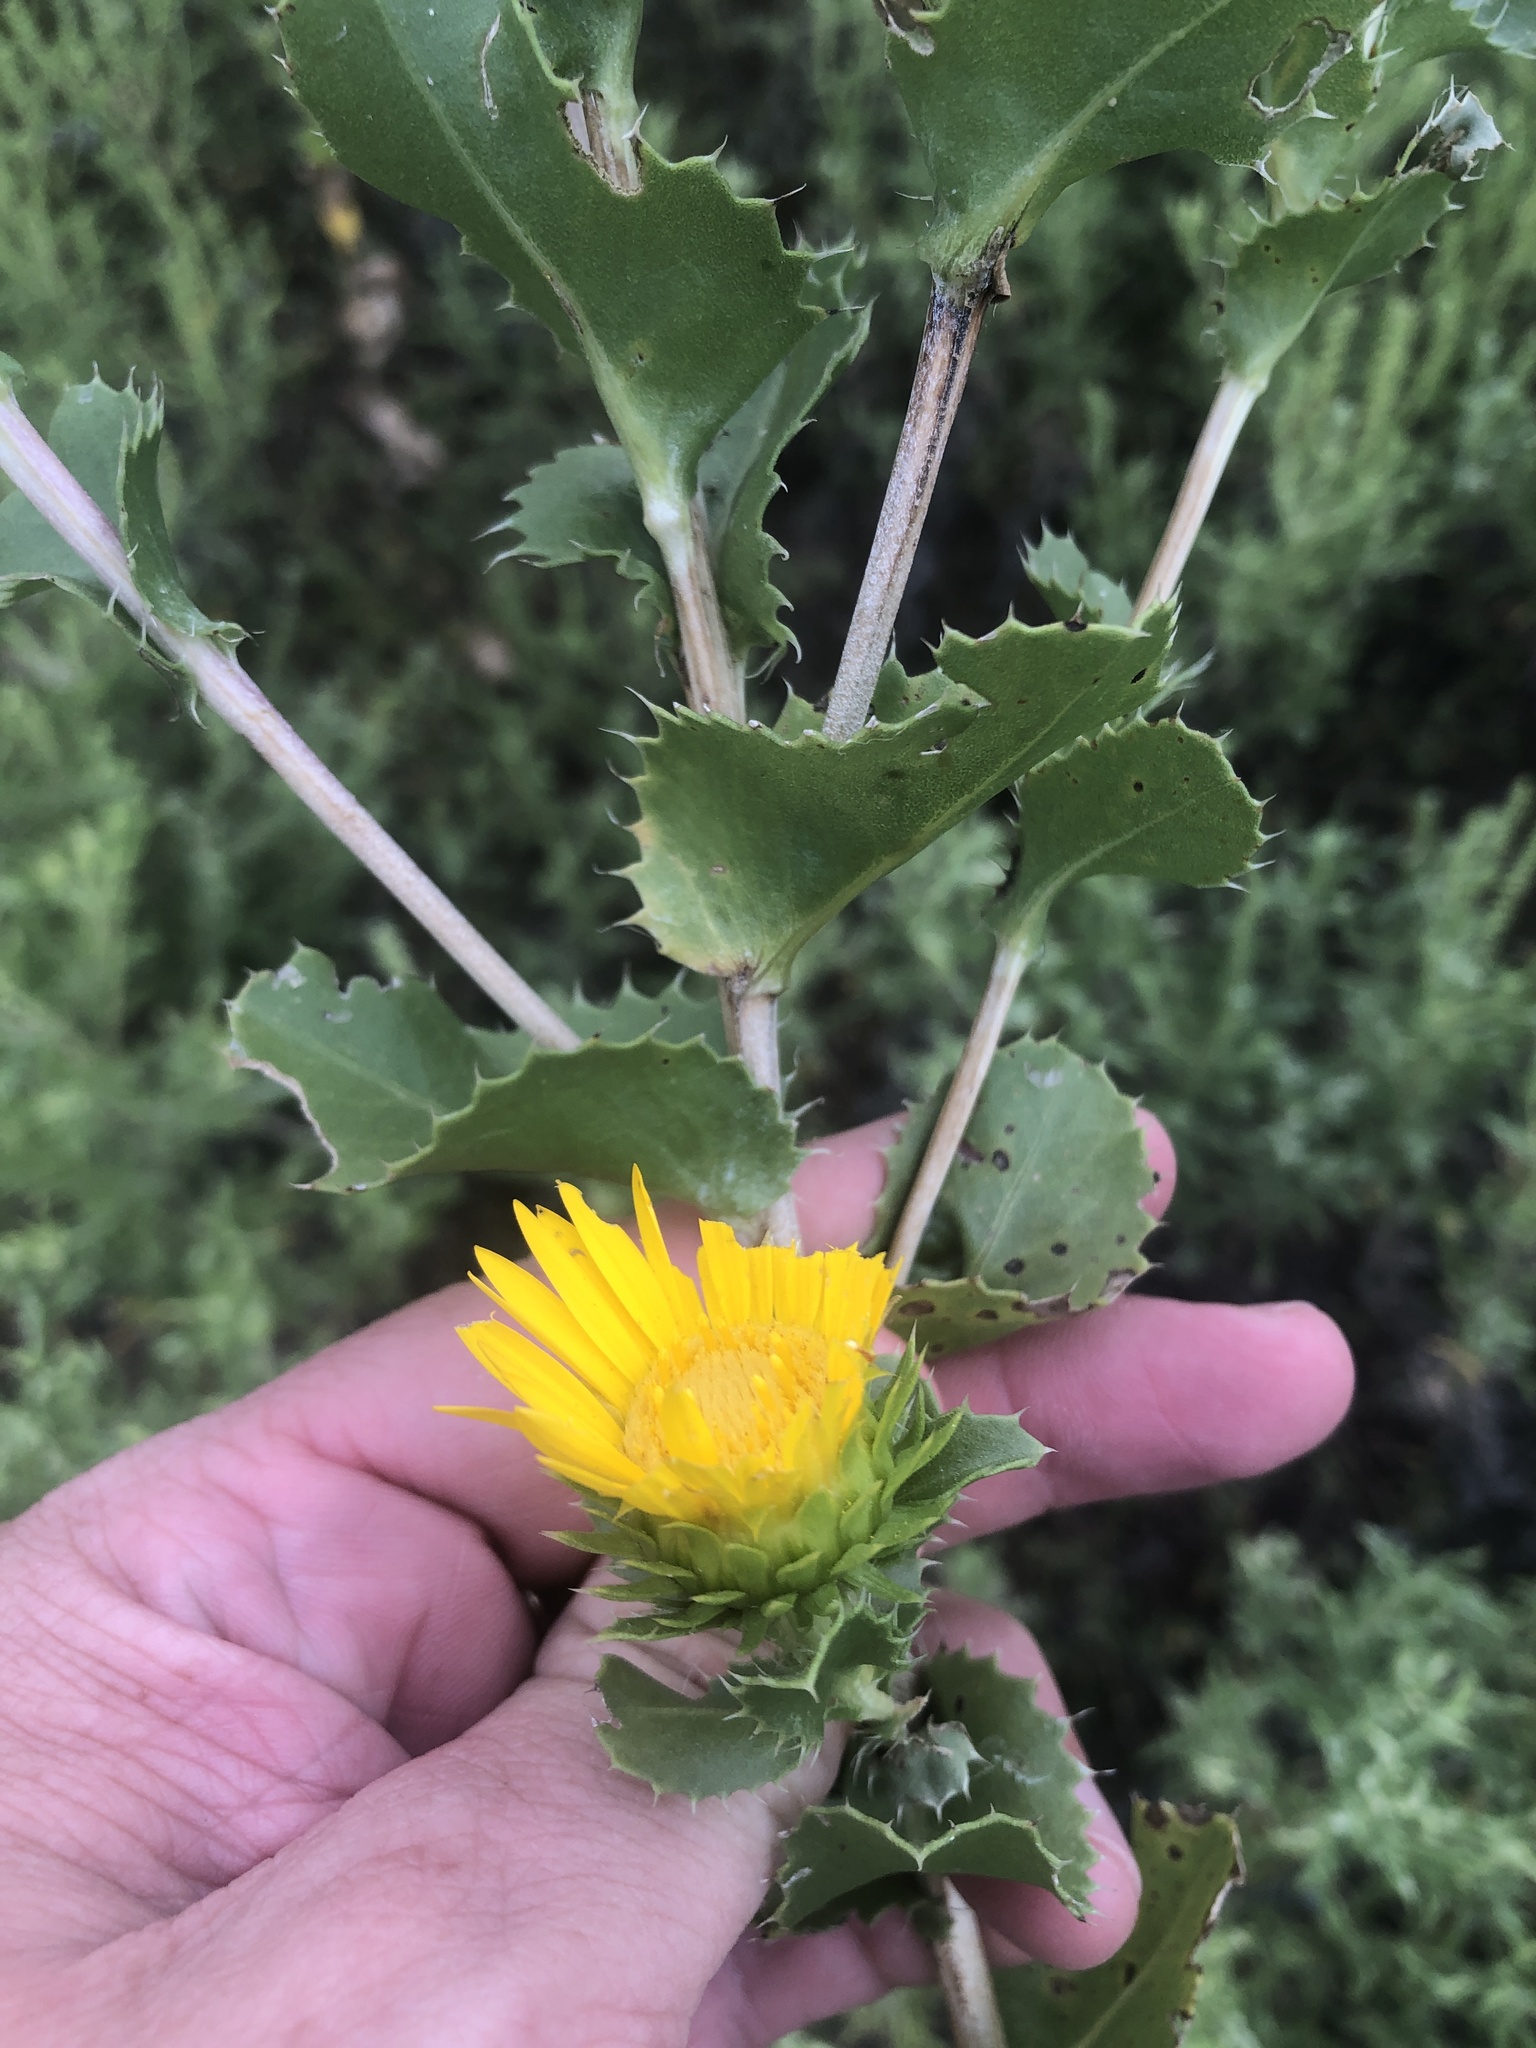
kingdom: Plantae
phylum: Tracheophyta
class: Magnoliopsida
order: Asterales
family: Asteraceae
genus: Grindelia
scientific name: Grindelia ciliata
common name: Goldenweed
